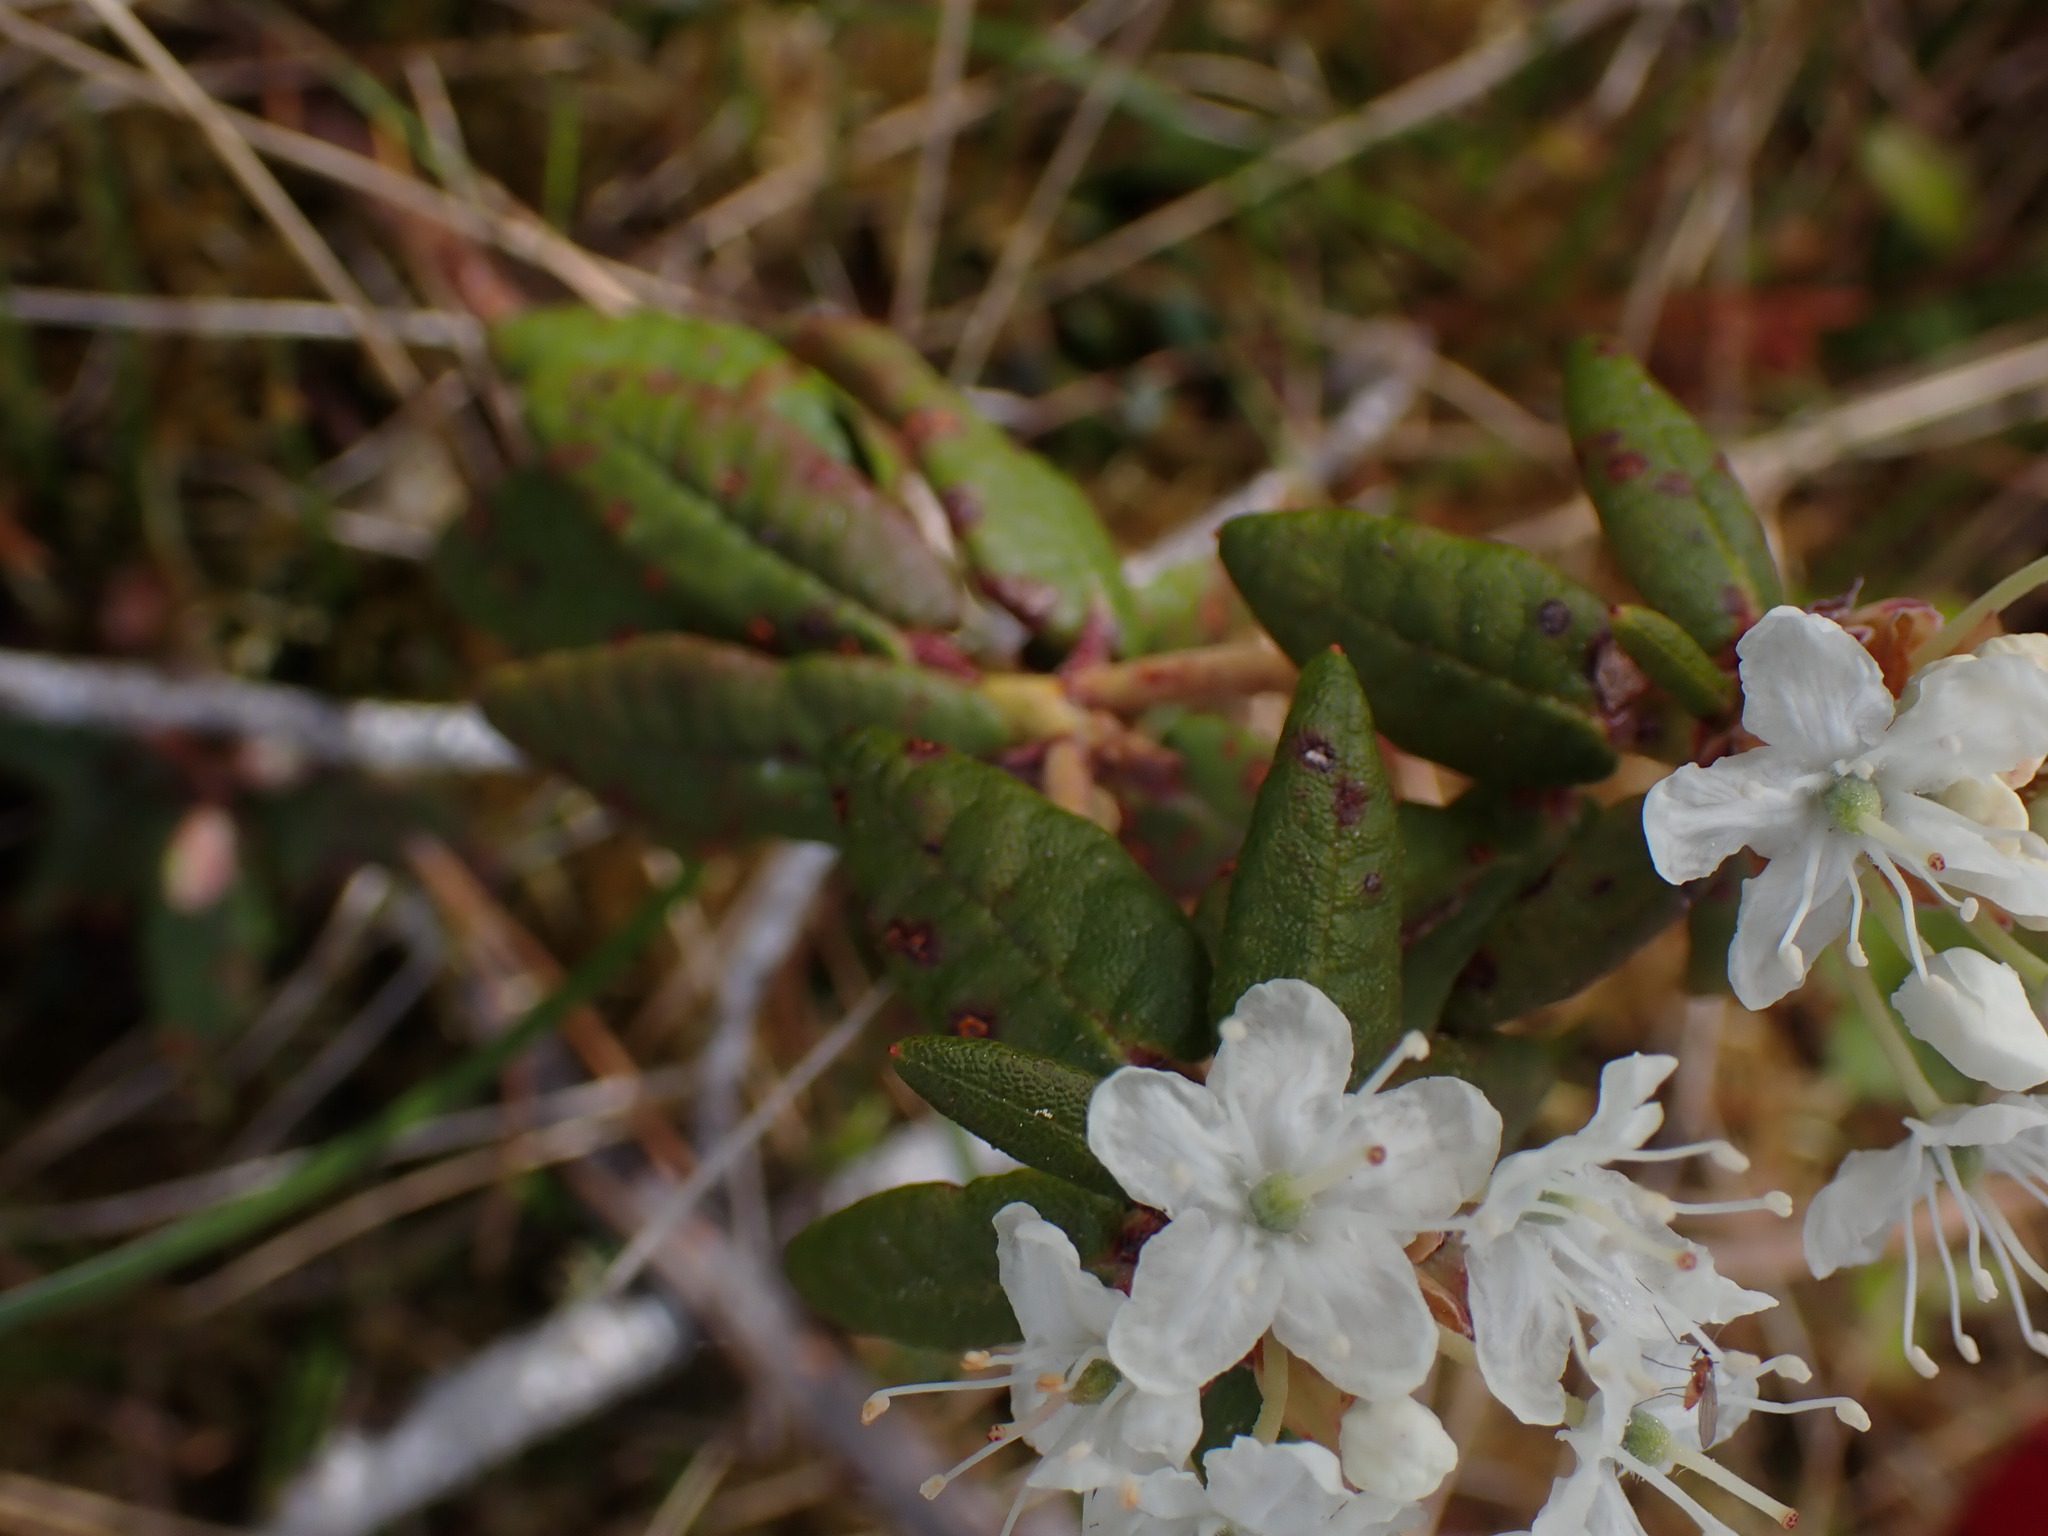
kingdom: Plantae
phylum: Tracheophyta
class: Magnoliopsida
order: Ericales
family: Ericaceae
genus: Rhododendron
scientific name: Rhododendron groenlandicum
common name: Bog labrador tea
